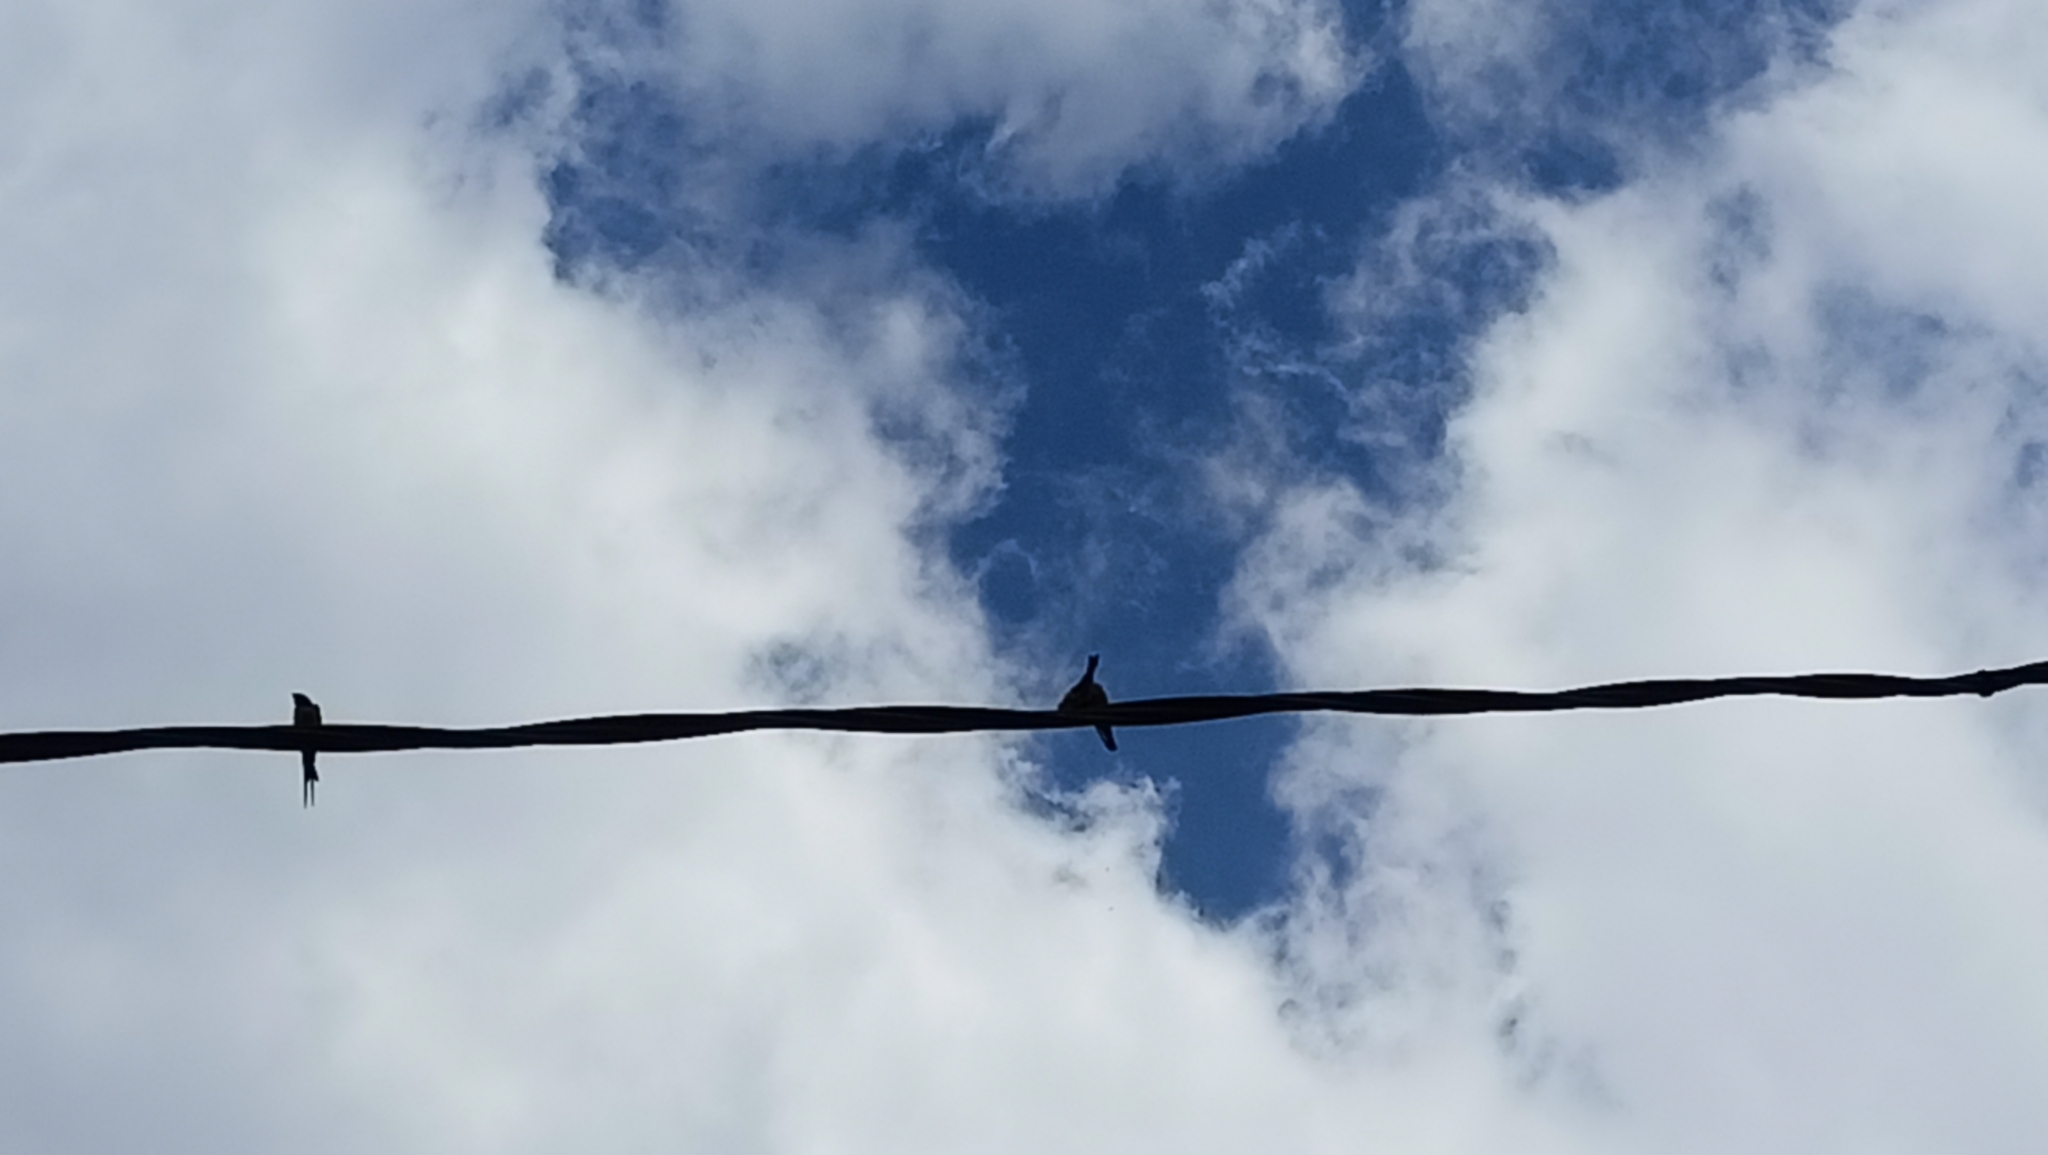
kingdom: Animalia
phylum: Chordata
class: Aves
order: Passeriformes
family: Hirundinidae
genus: Hirundo
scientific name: Hirundo rustica
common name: Barn swallow
